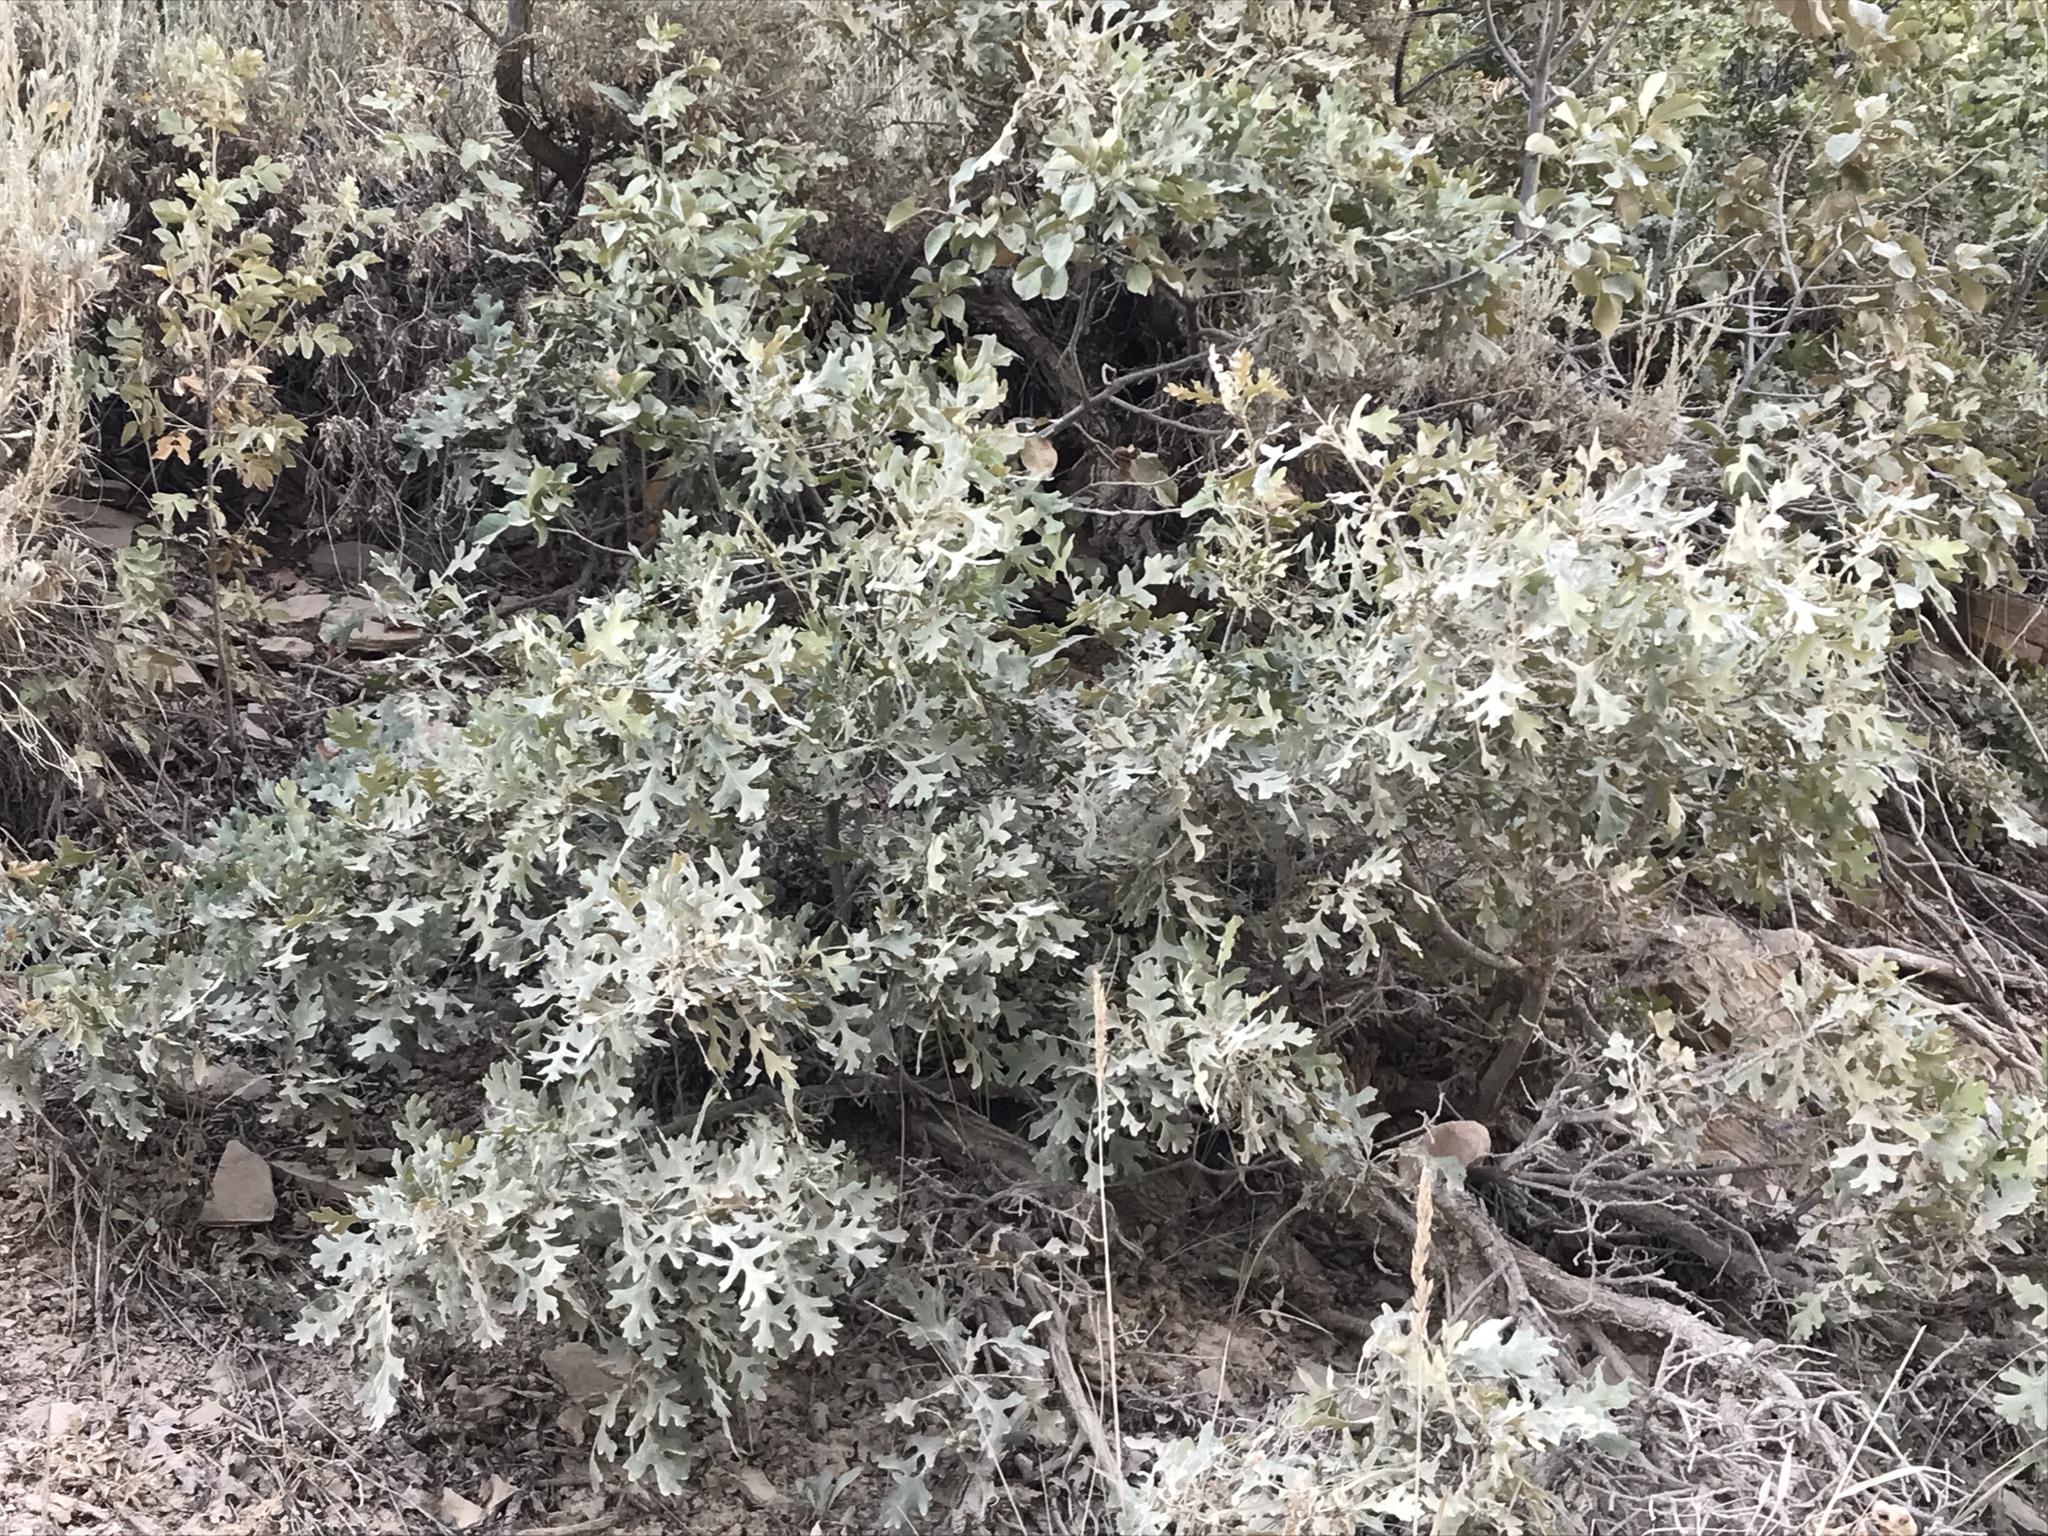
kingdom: Plantae
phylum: Tracheophyta
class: Magnoliopsida
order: Fagales
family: Fagaceae
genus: Quercus
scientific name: Quercus gambelii
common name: Gambel oak
